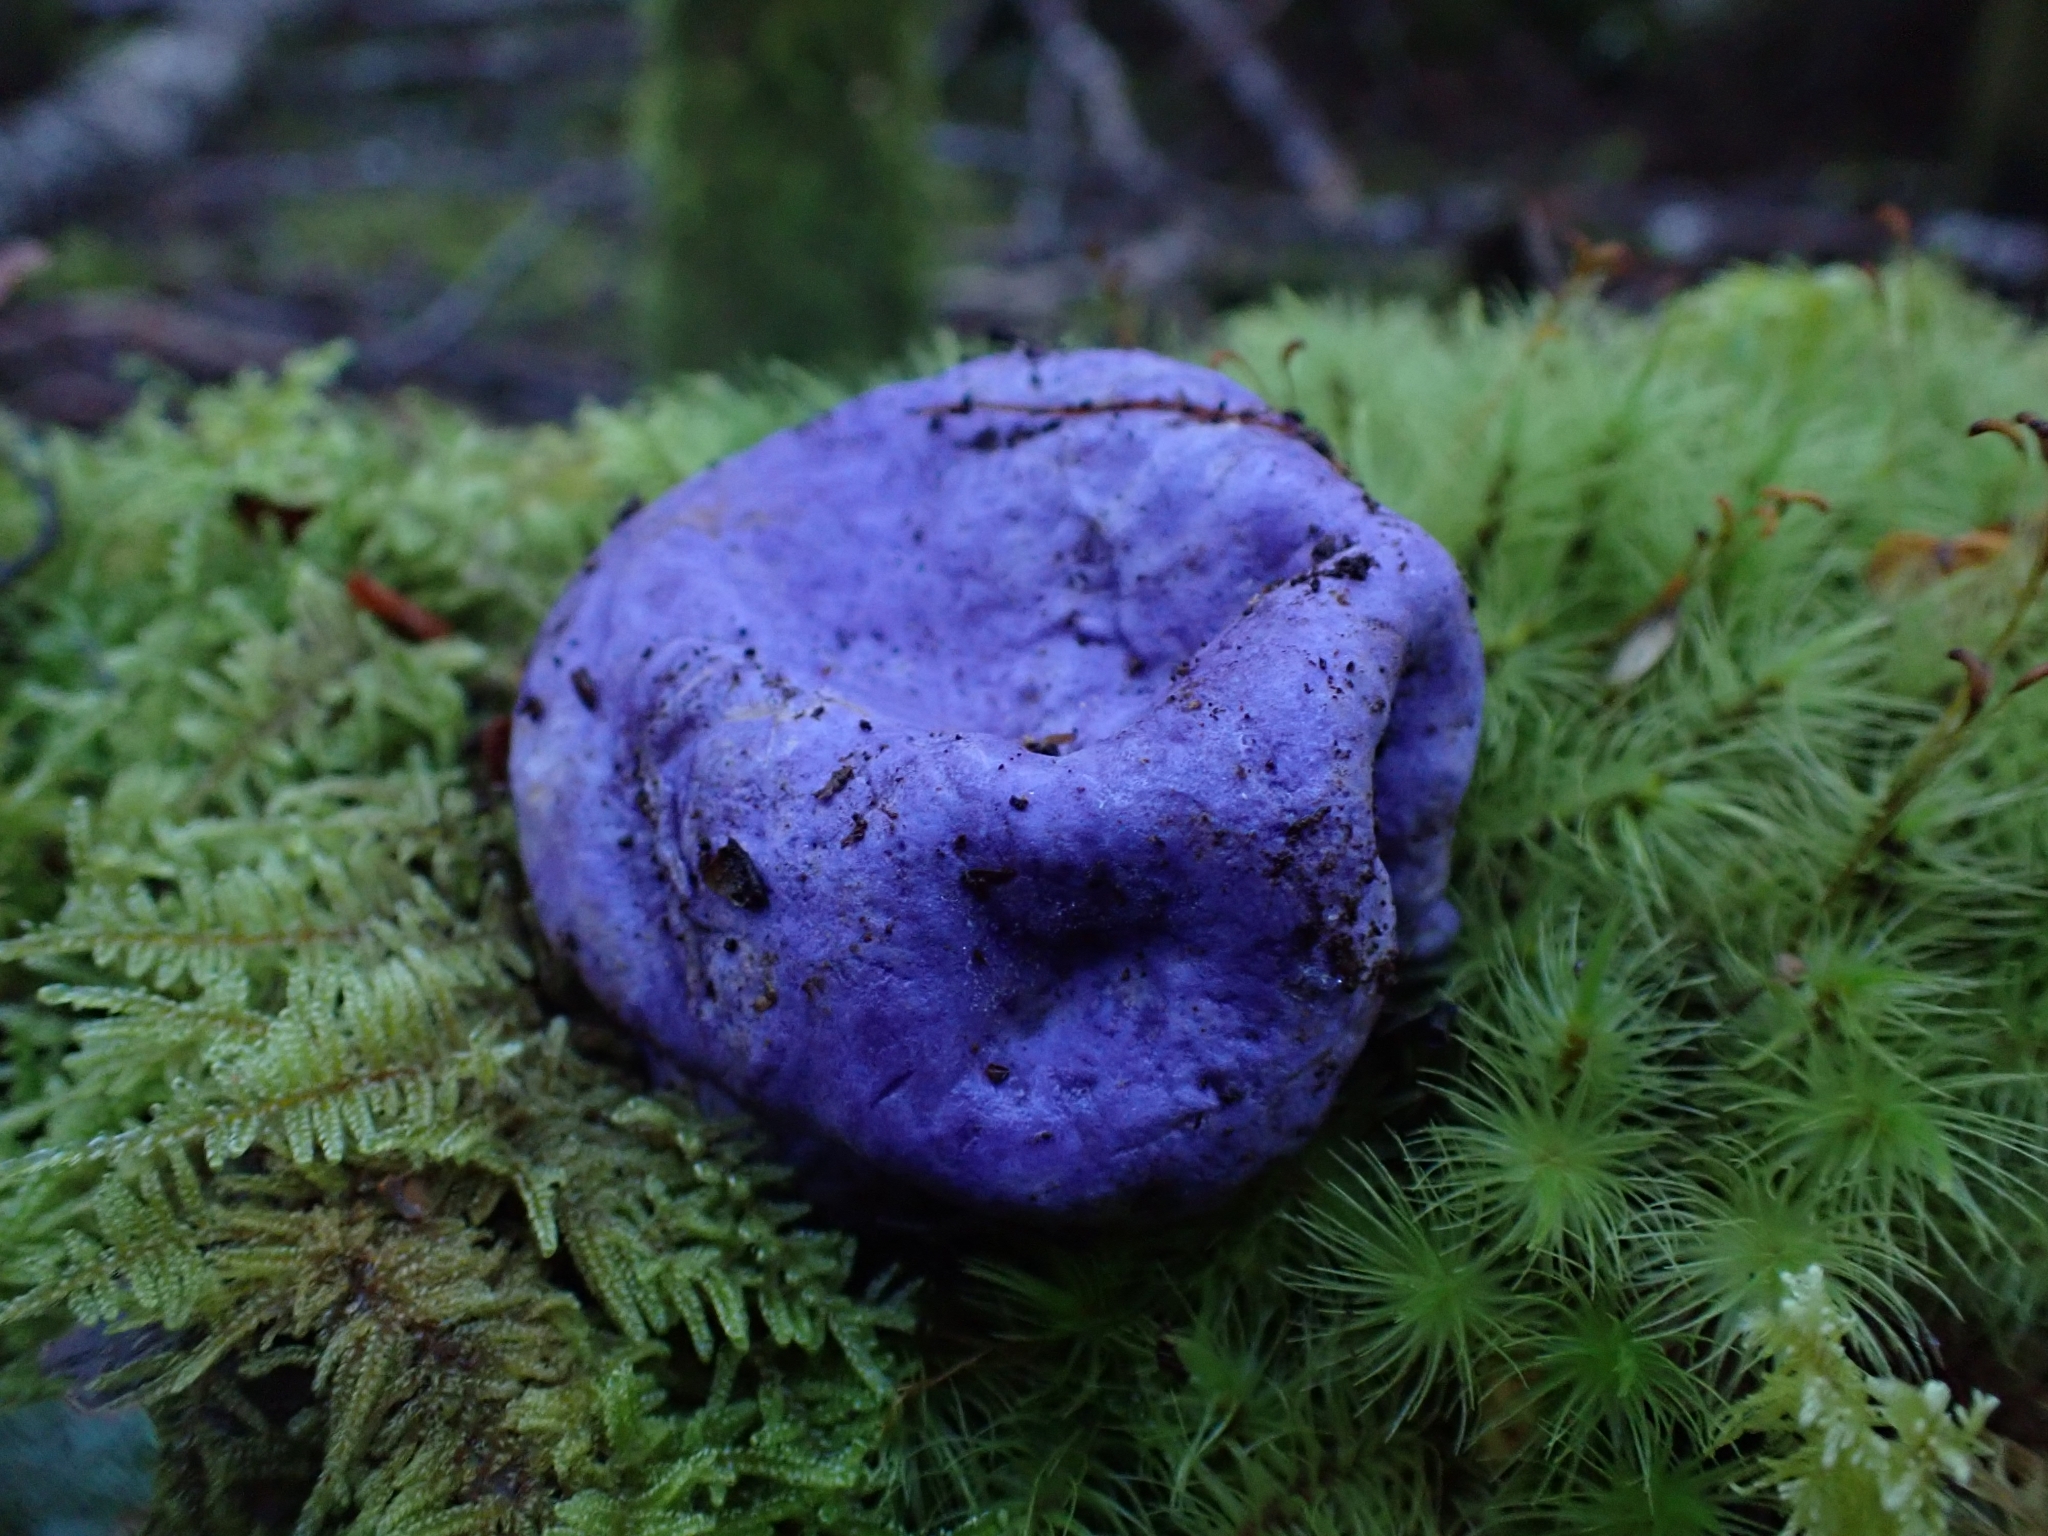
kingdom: Fungi
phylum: Basidiomycota
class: Agaricomycetes
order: Hysterangiales
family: Gallaceaceae
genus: Gallacea
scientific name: Gallacea scleroderma
